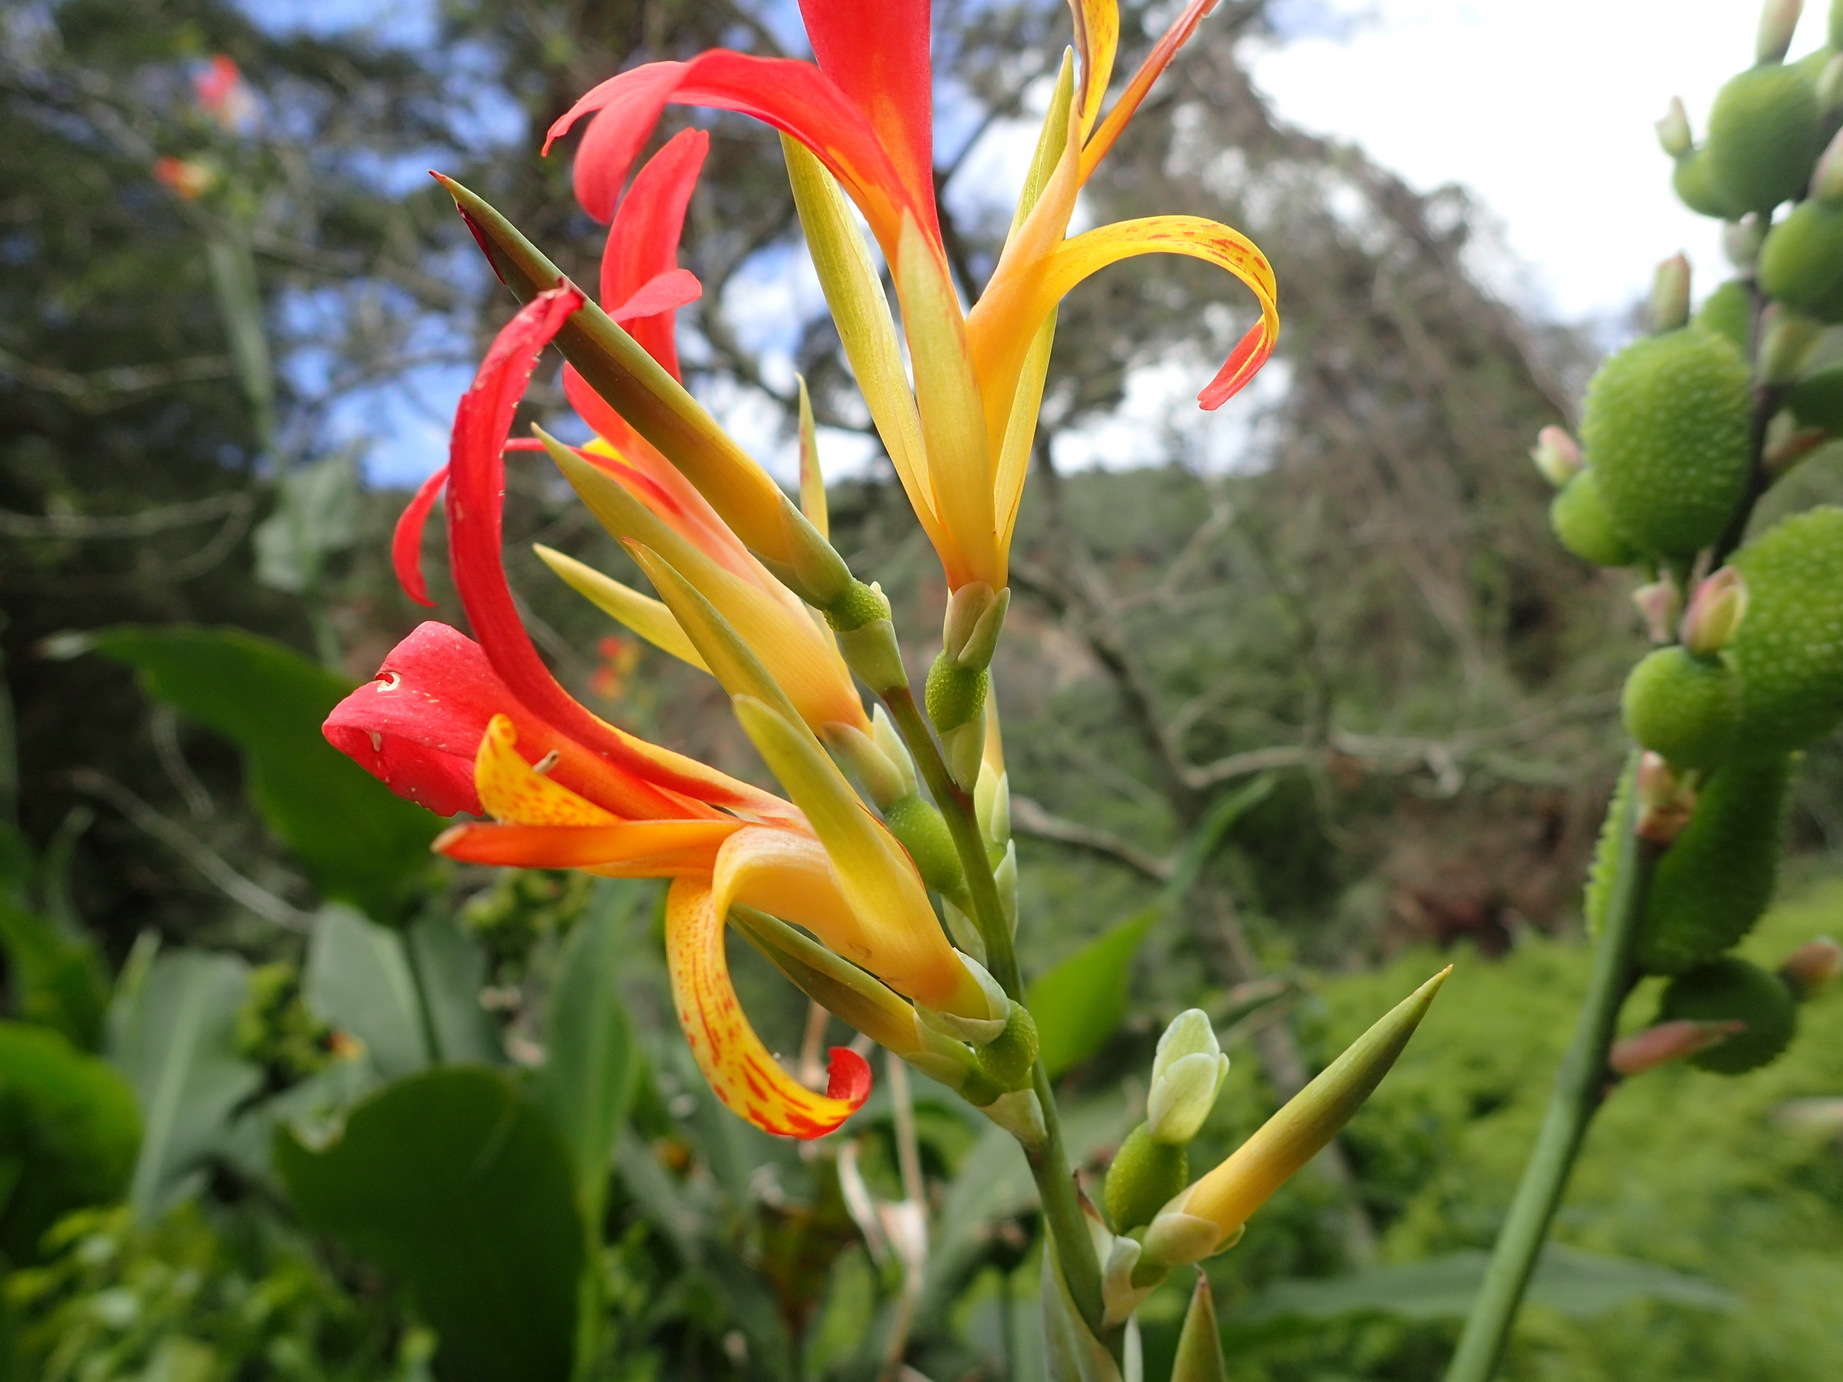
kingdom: Plantae
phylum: Tracheophyta
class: Liliopsida
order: Zingiberales
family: Cannaceae
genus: Canna
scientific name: Canna indica
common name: Indian shot
